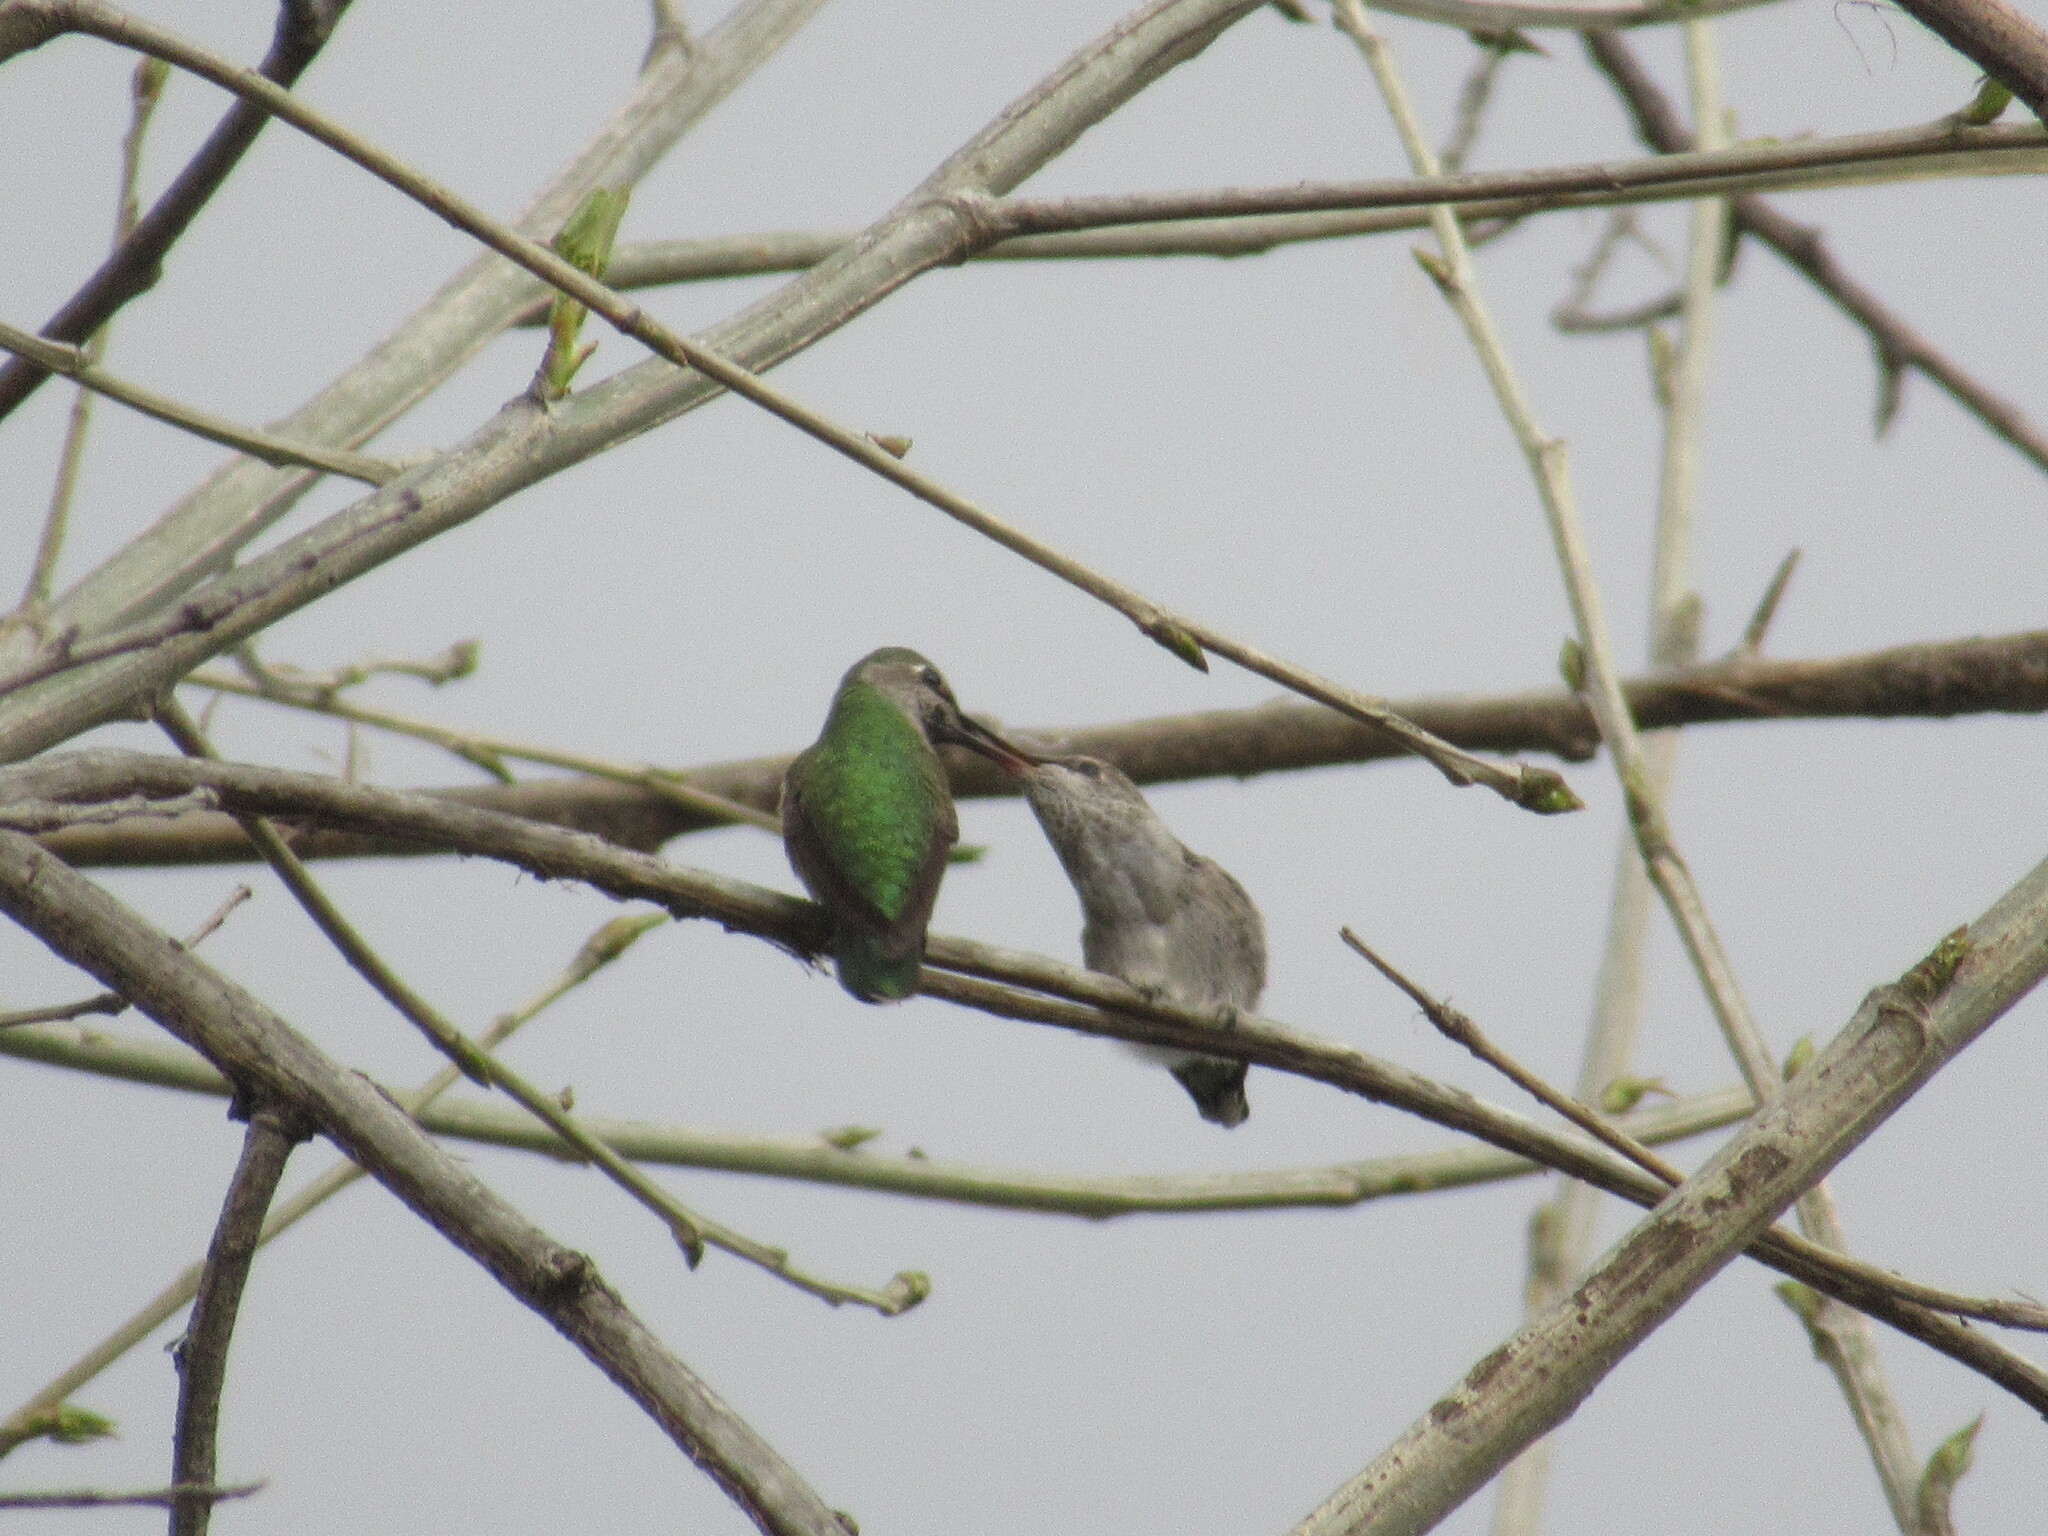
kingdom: Animalia
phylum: Chordata
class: Aves
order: Apodiformes
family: Trochilidae
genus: Calypte
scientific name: Calypte anna
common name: Anna's hummingbird
